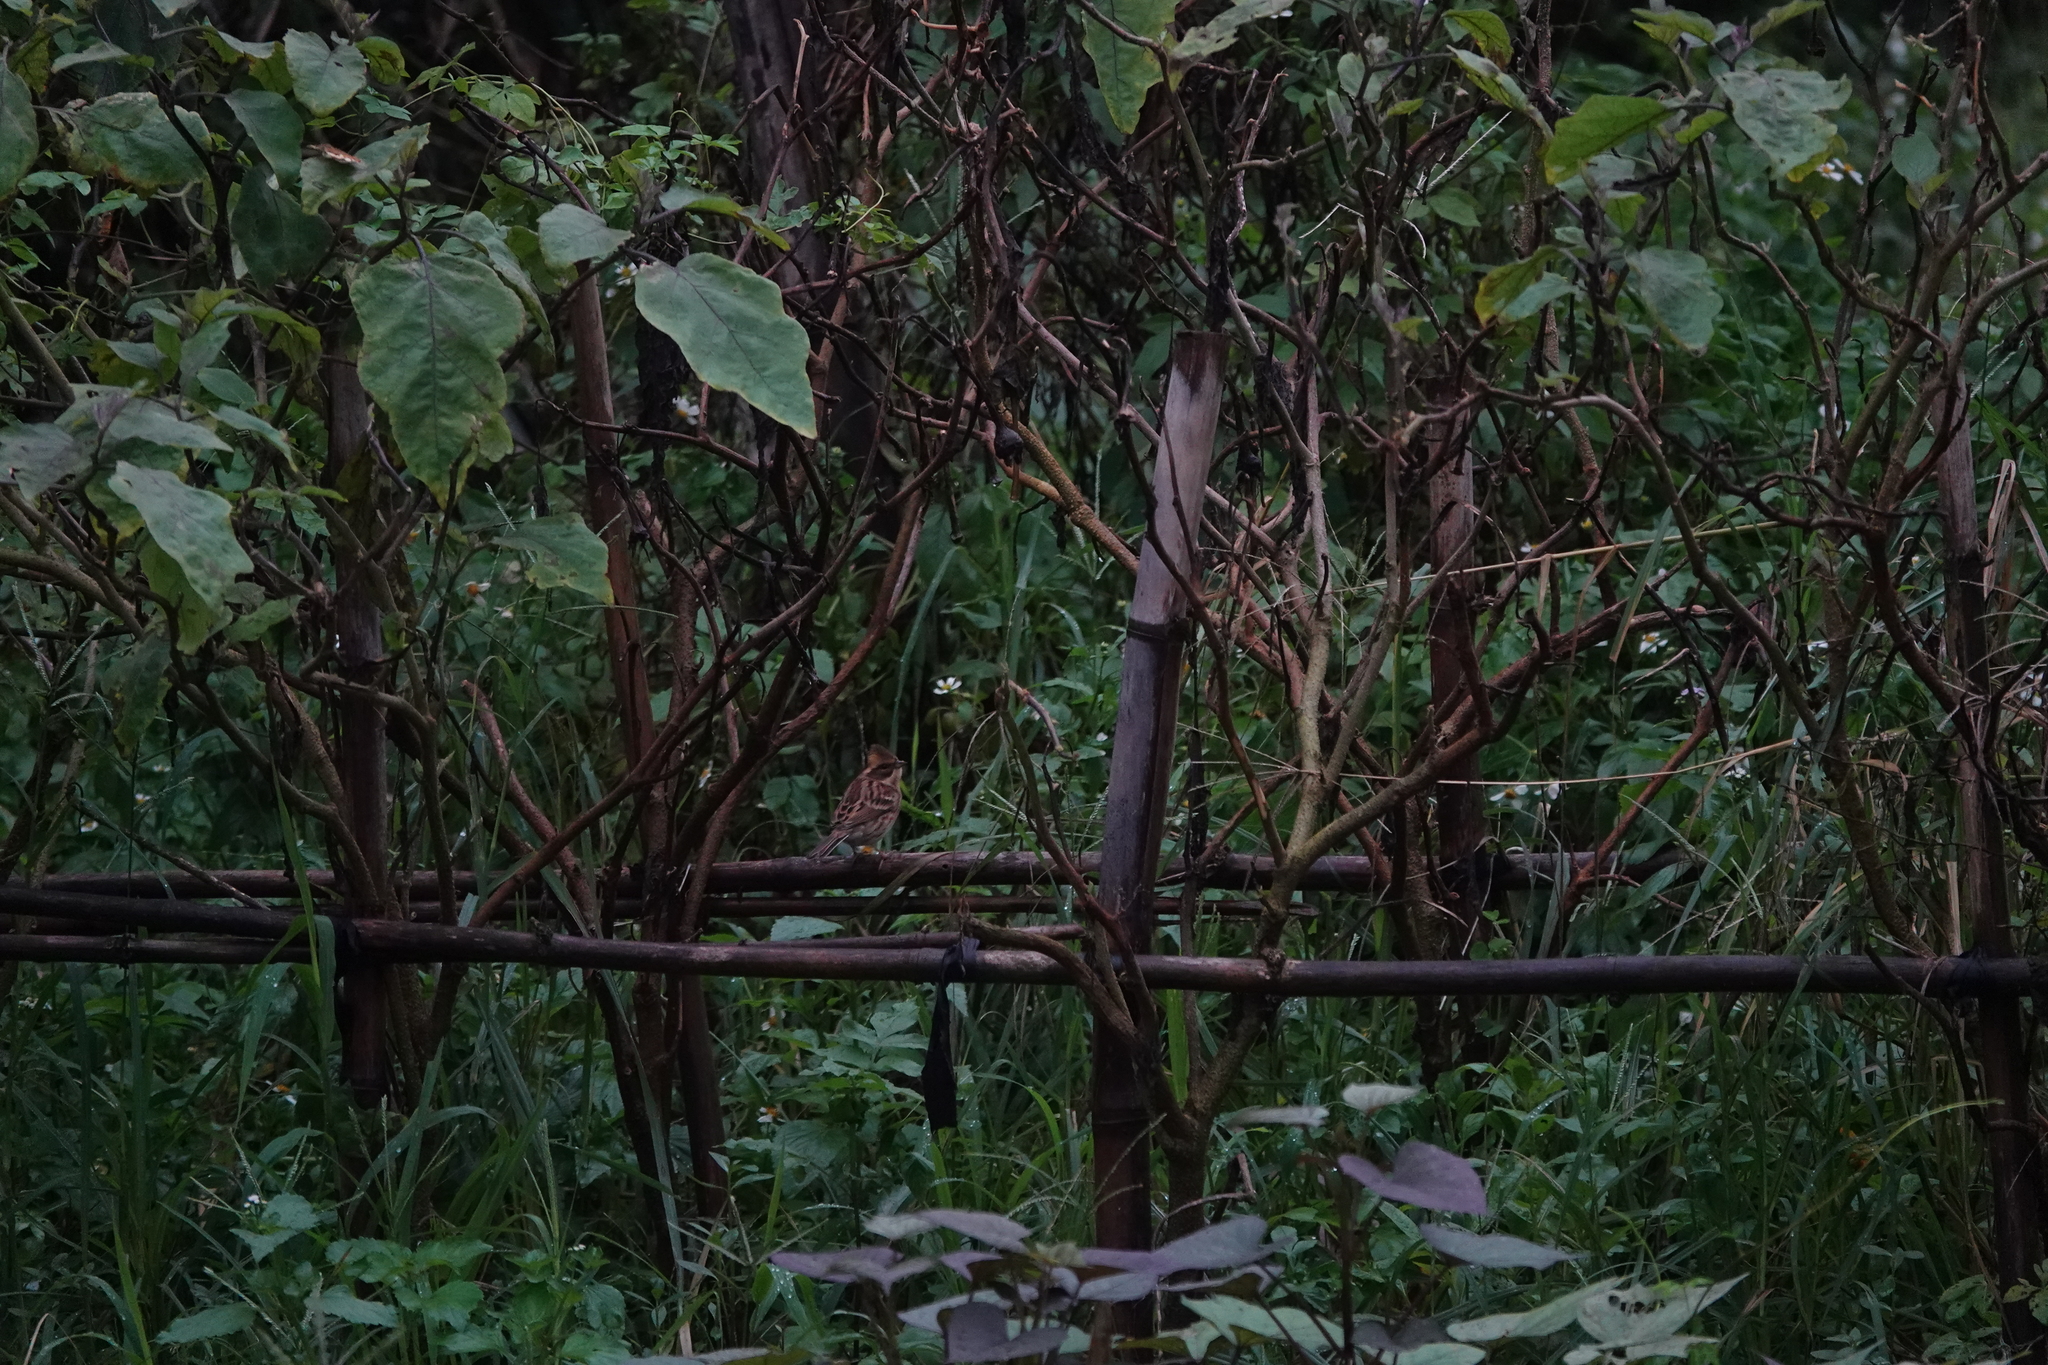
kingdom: Animalia
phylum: Chordata
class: Aves
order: Passeriformes
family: Emberizidae
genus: Emberiza
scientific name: Emberiza elegans
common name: Yellow-throated bunting
